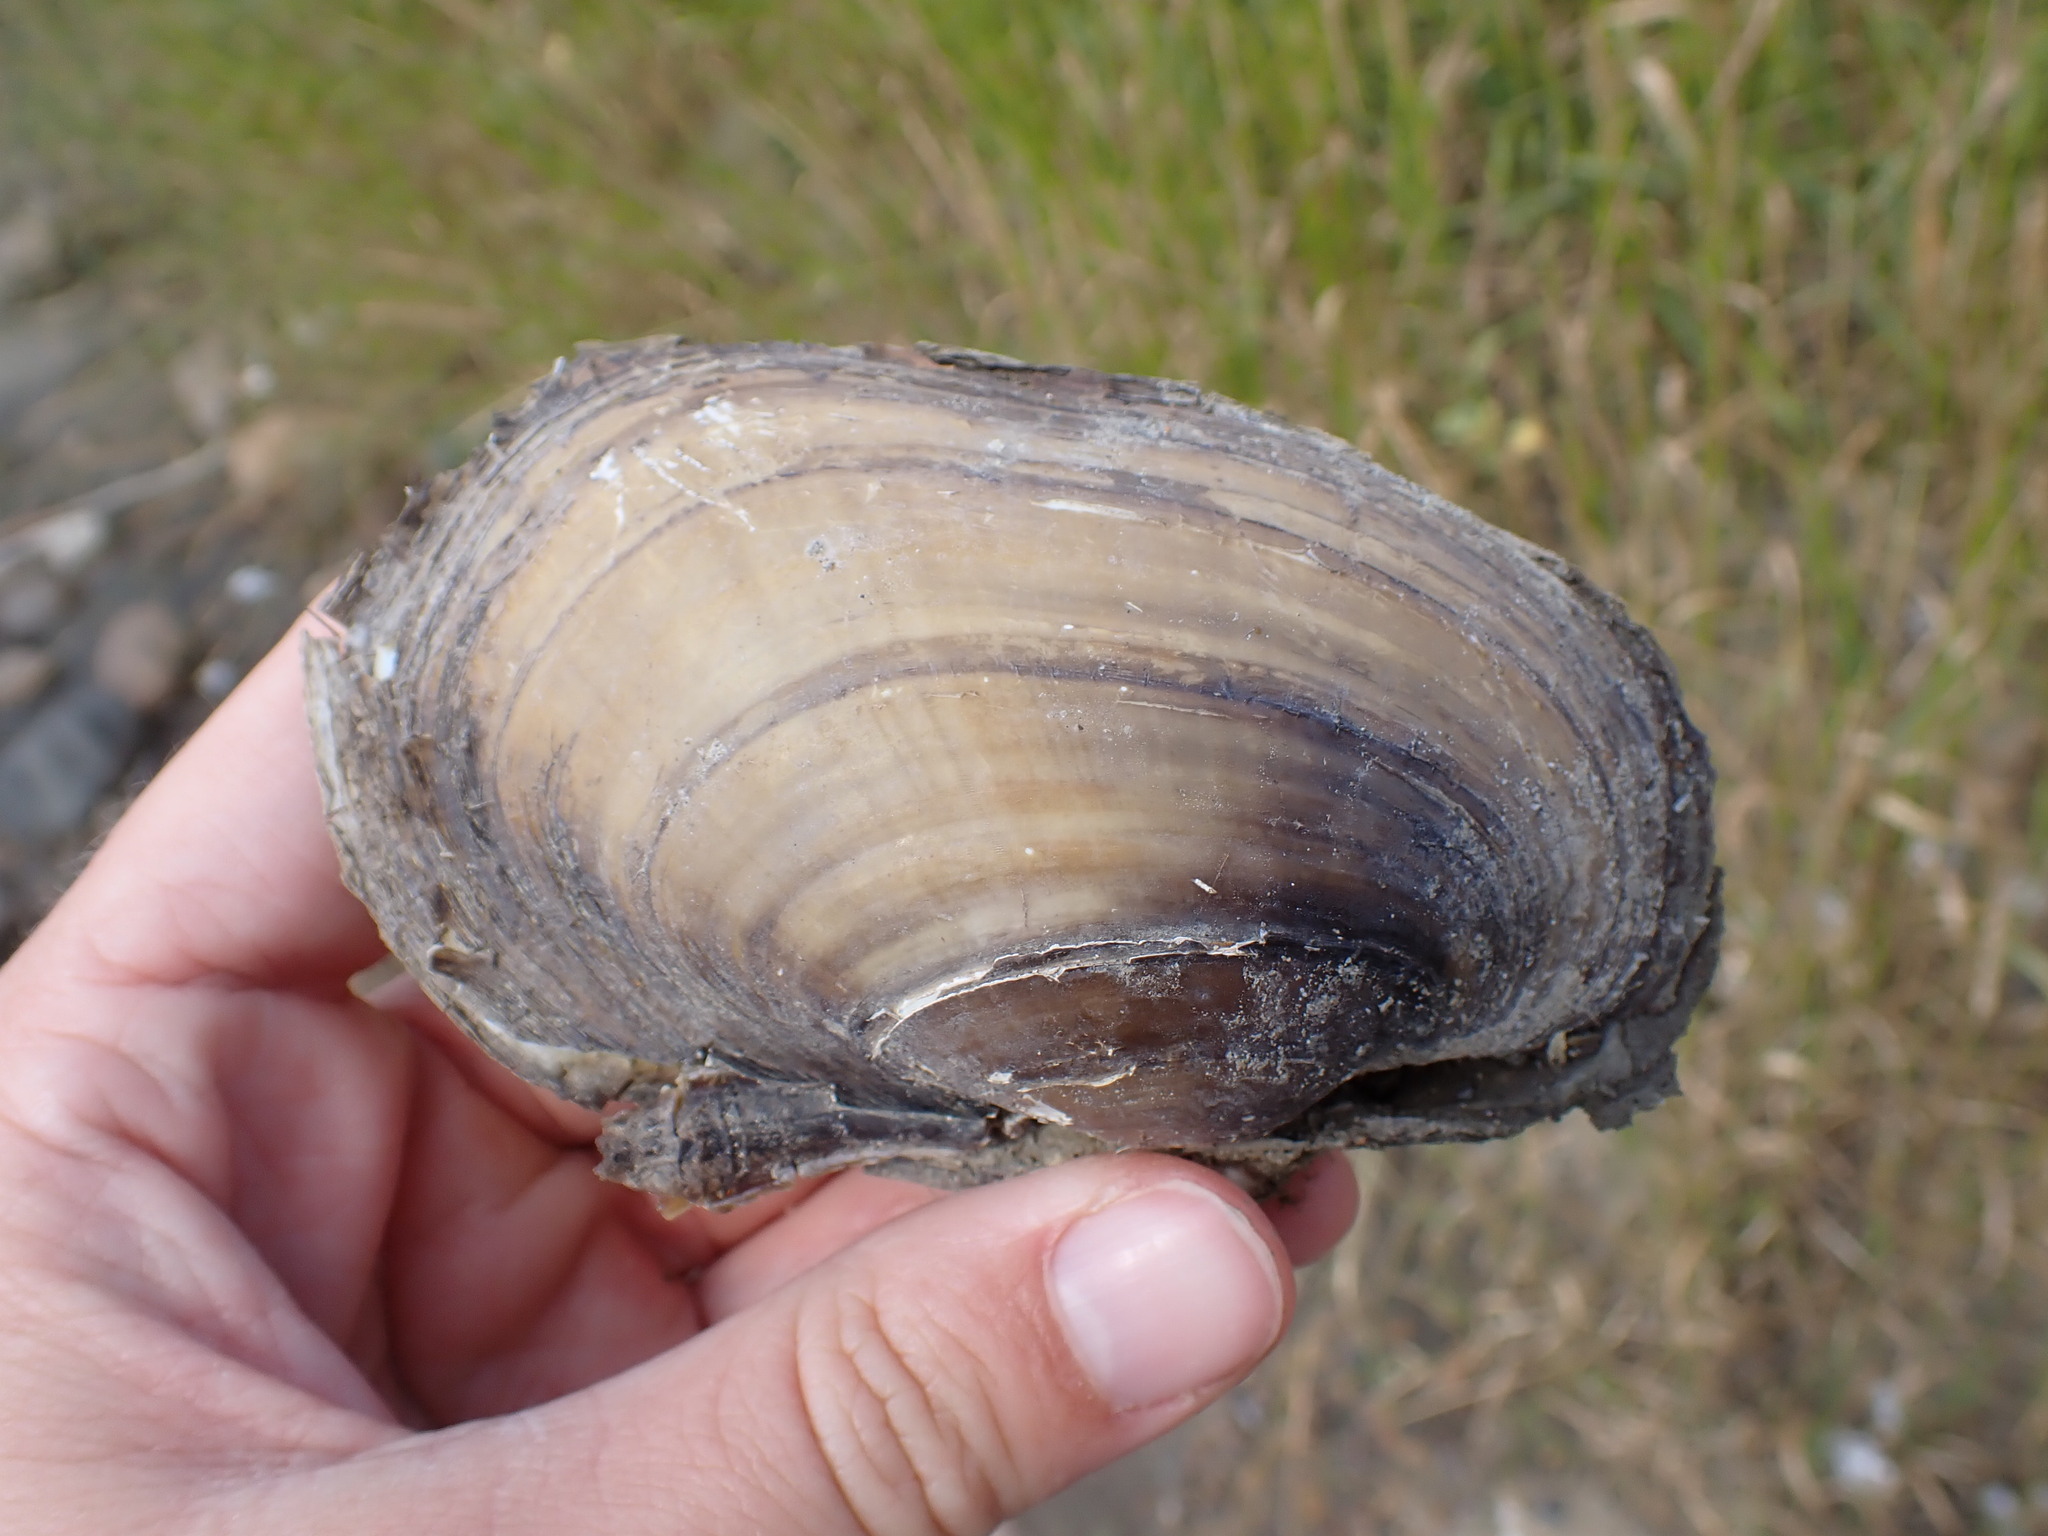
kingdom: Animalia
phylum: Mollusca
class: Bivalvia
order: Unionida
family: Unionidae
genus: Lampsilis
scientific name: Lampsilis siliquoidea
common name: Fatmucket
